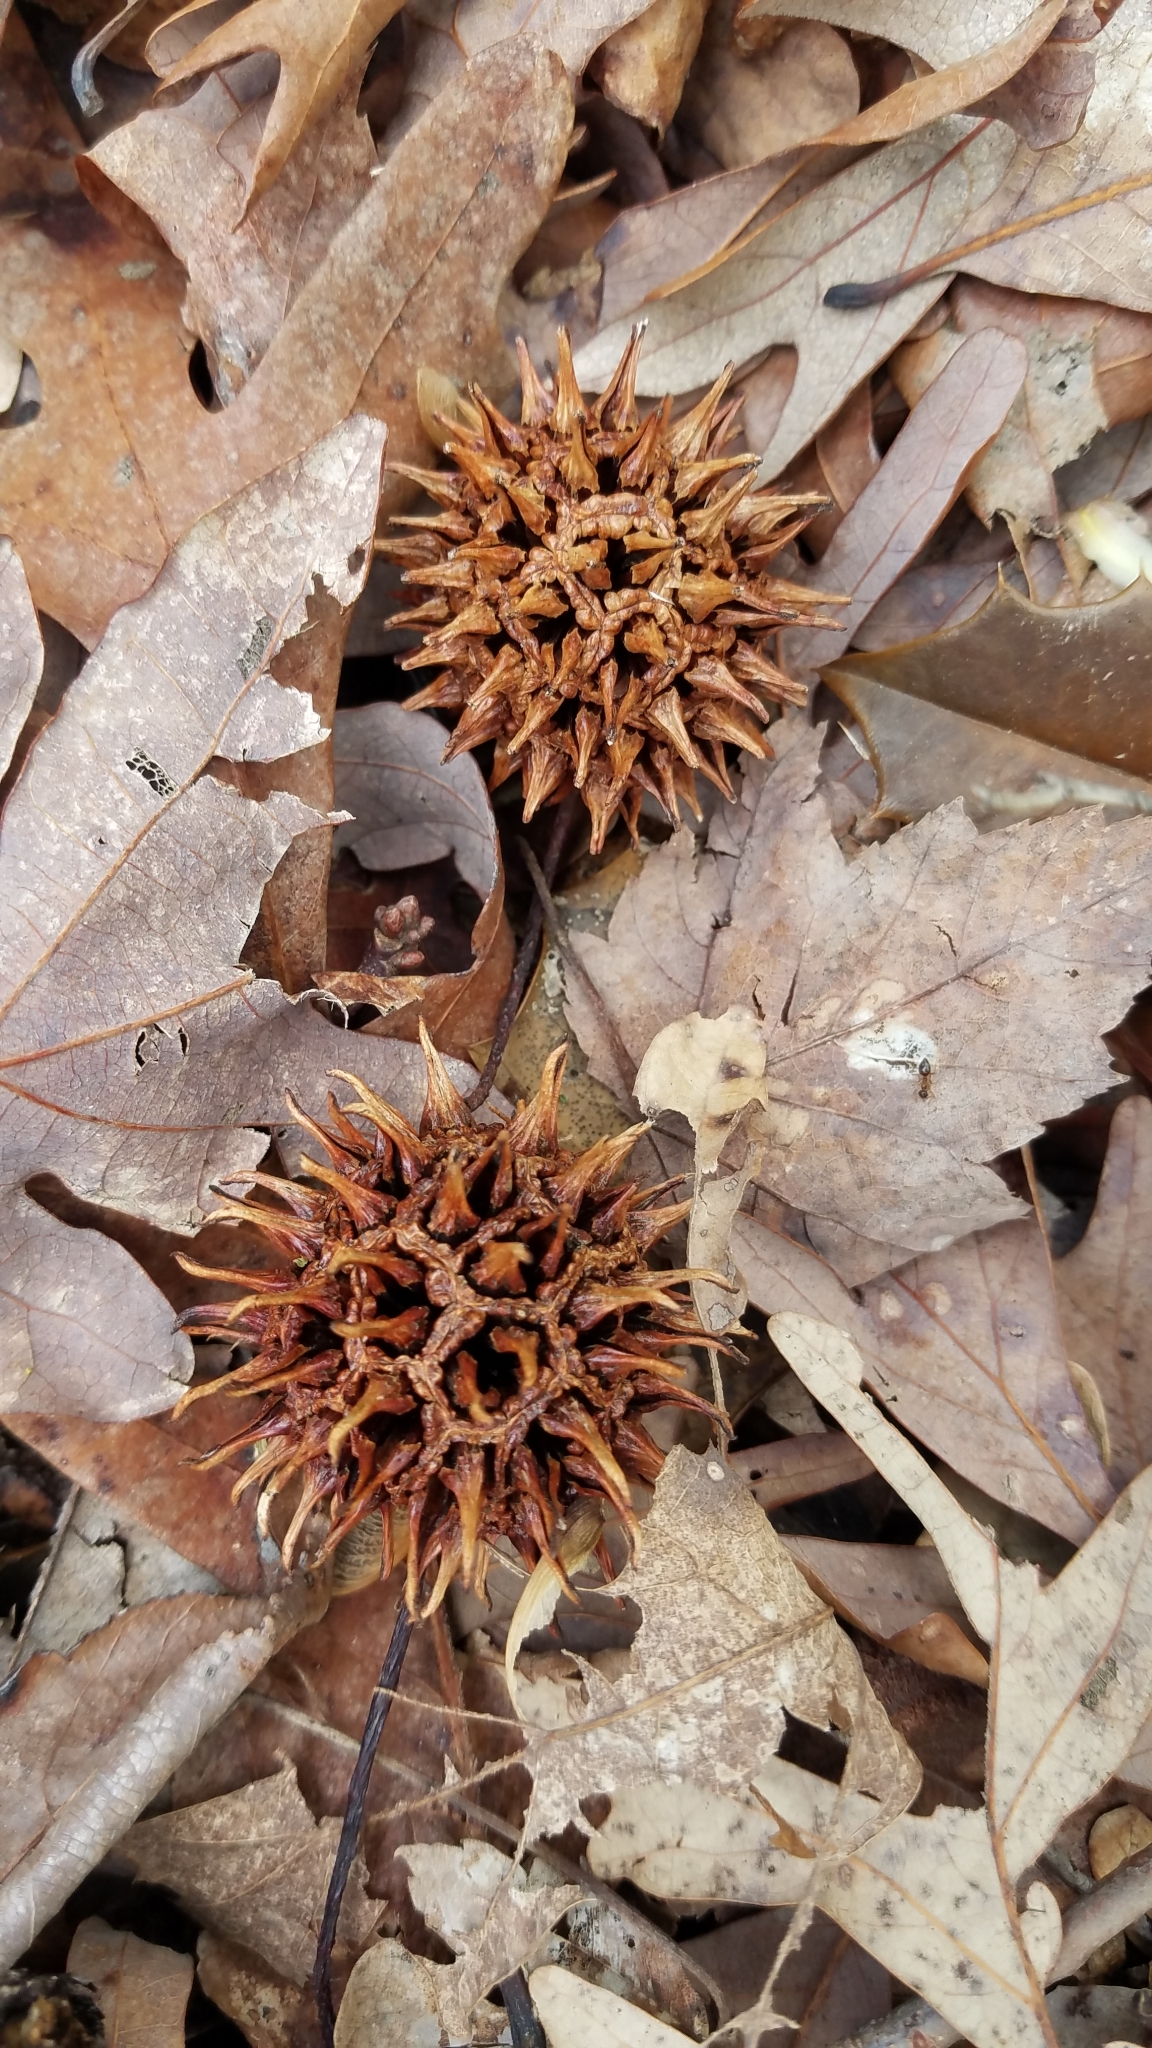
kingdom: Plantae
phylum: Tracheophyta
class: Magnoliopsida
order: Saxifragales
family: Altingiaceae
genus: Liquidambar
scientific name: Liquidambar styraciflua
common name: Sweet gum
